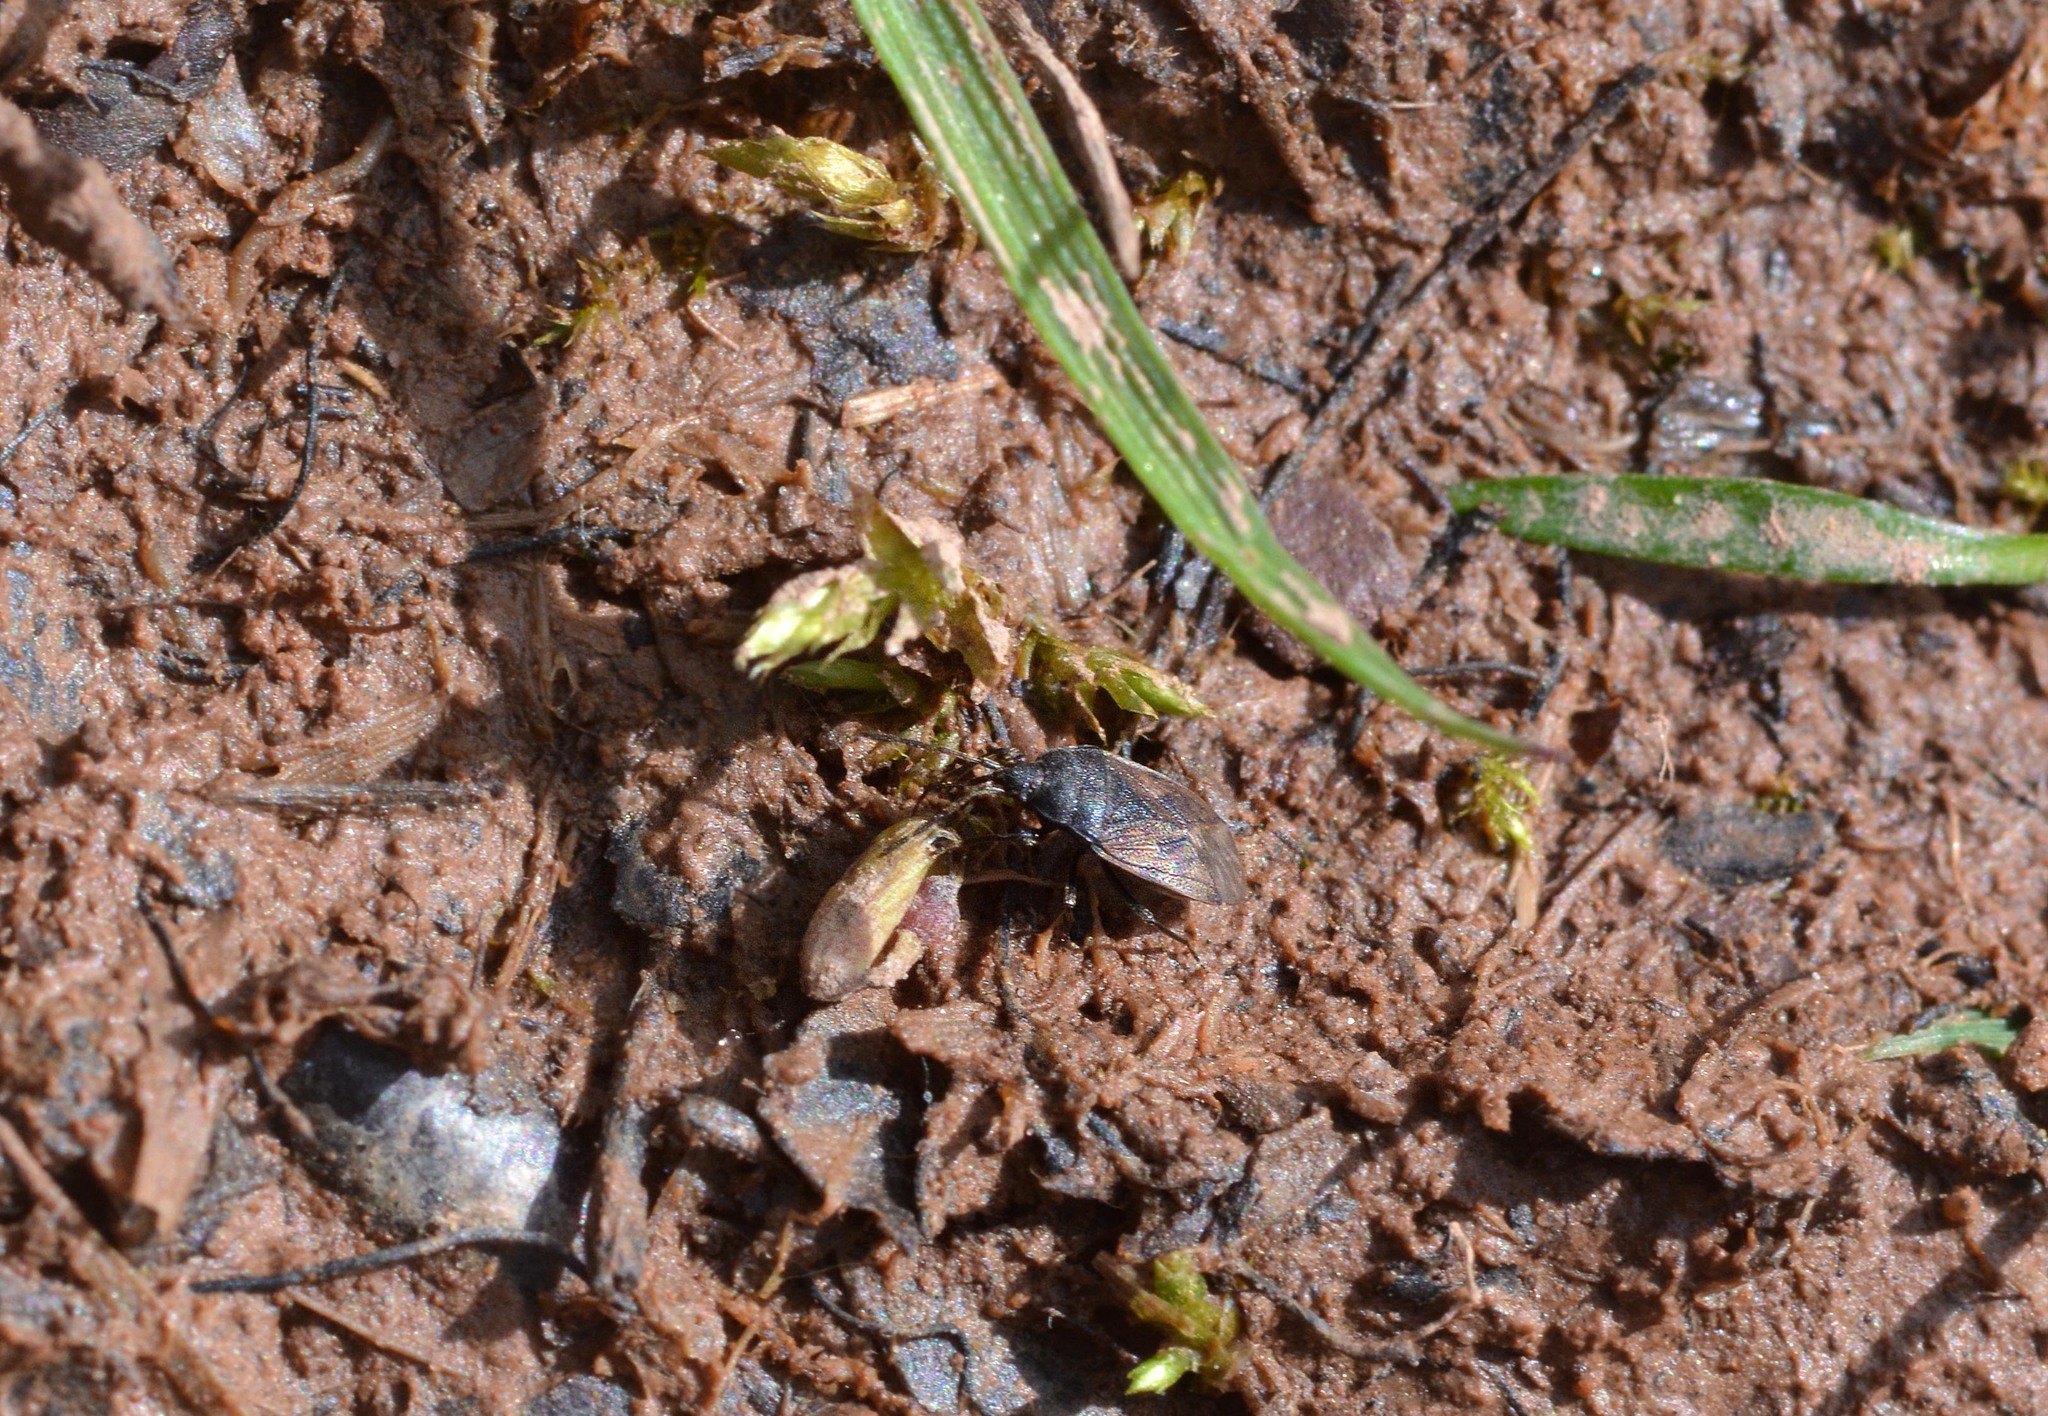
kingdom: Animalia
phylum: Arthropoda
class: Insecta
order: Hemiptera
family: Rhyparochromidae
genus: Drymus
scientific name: Drymus sylvaticus
